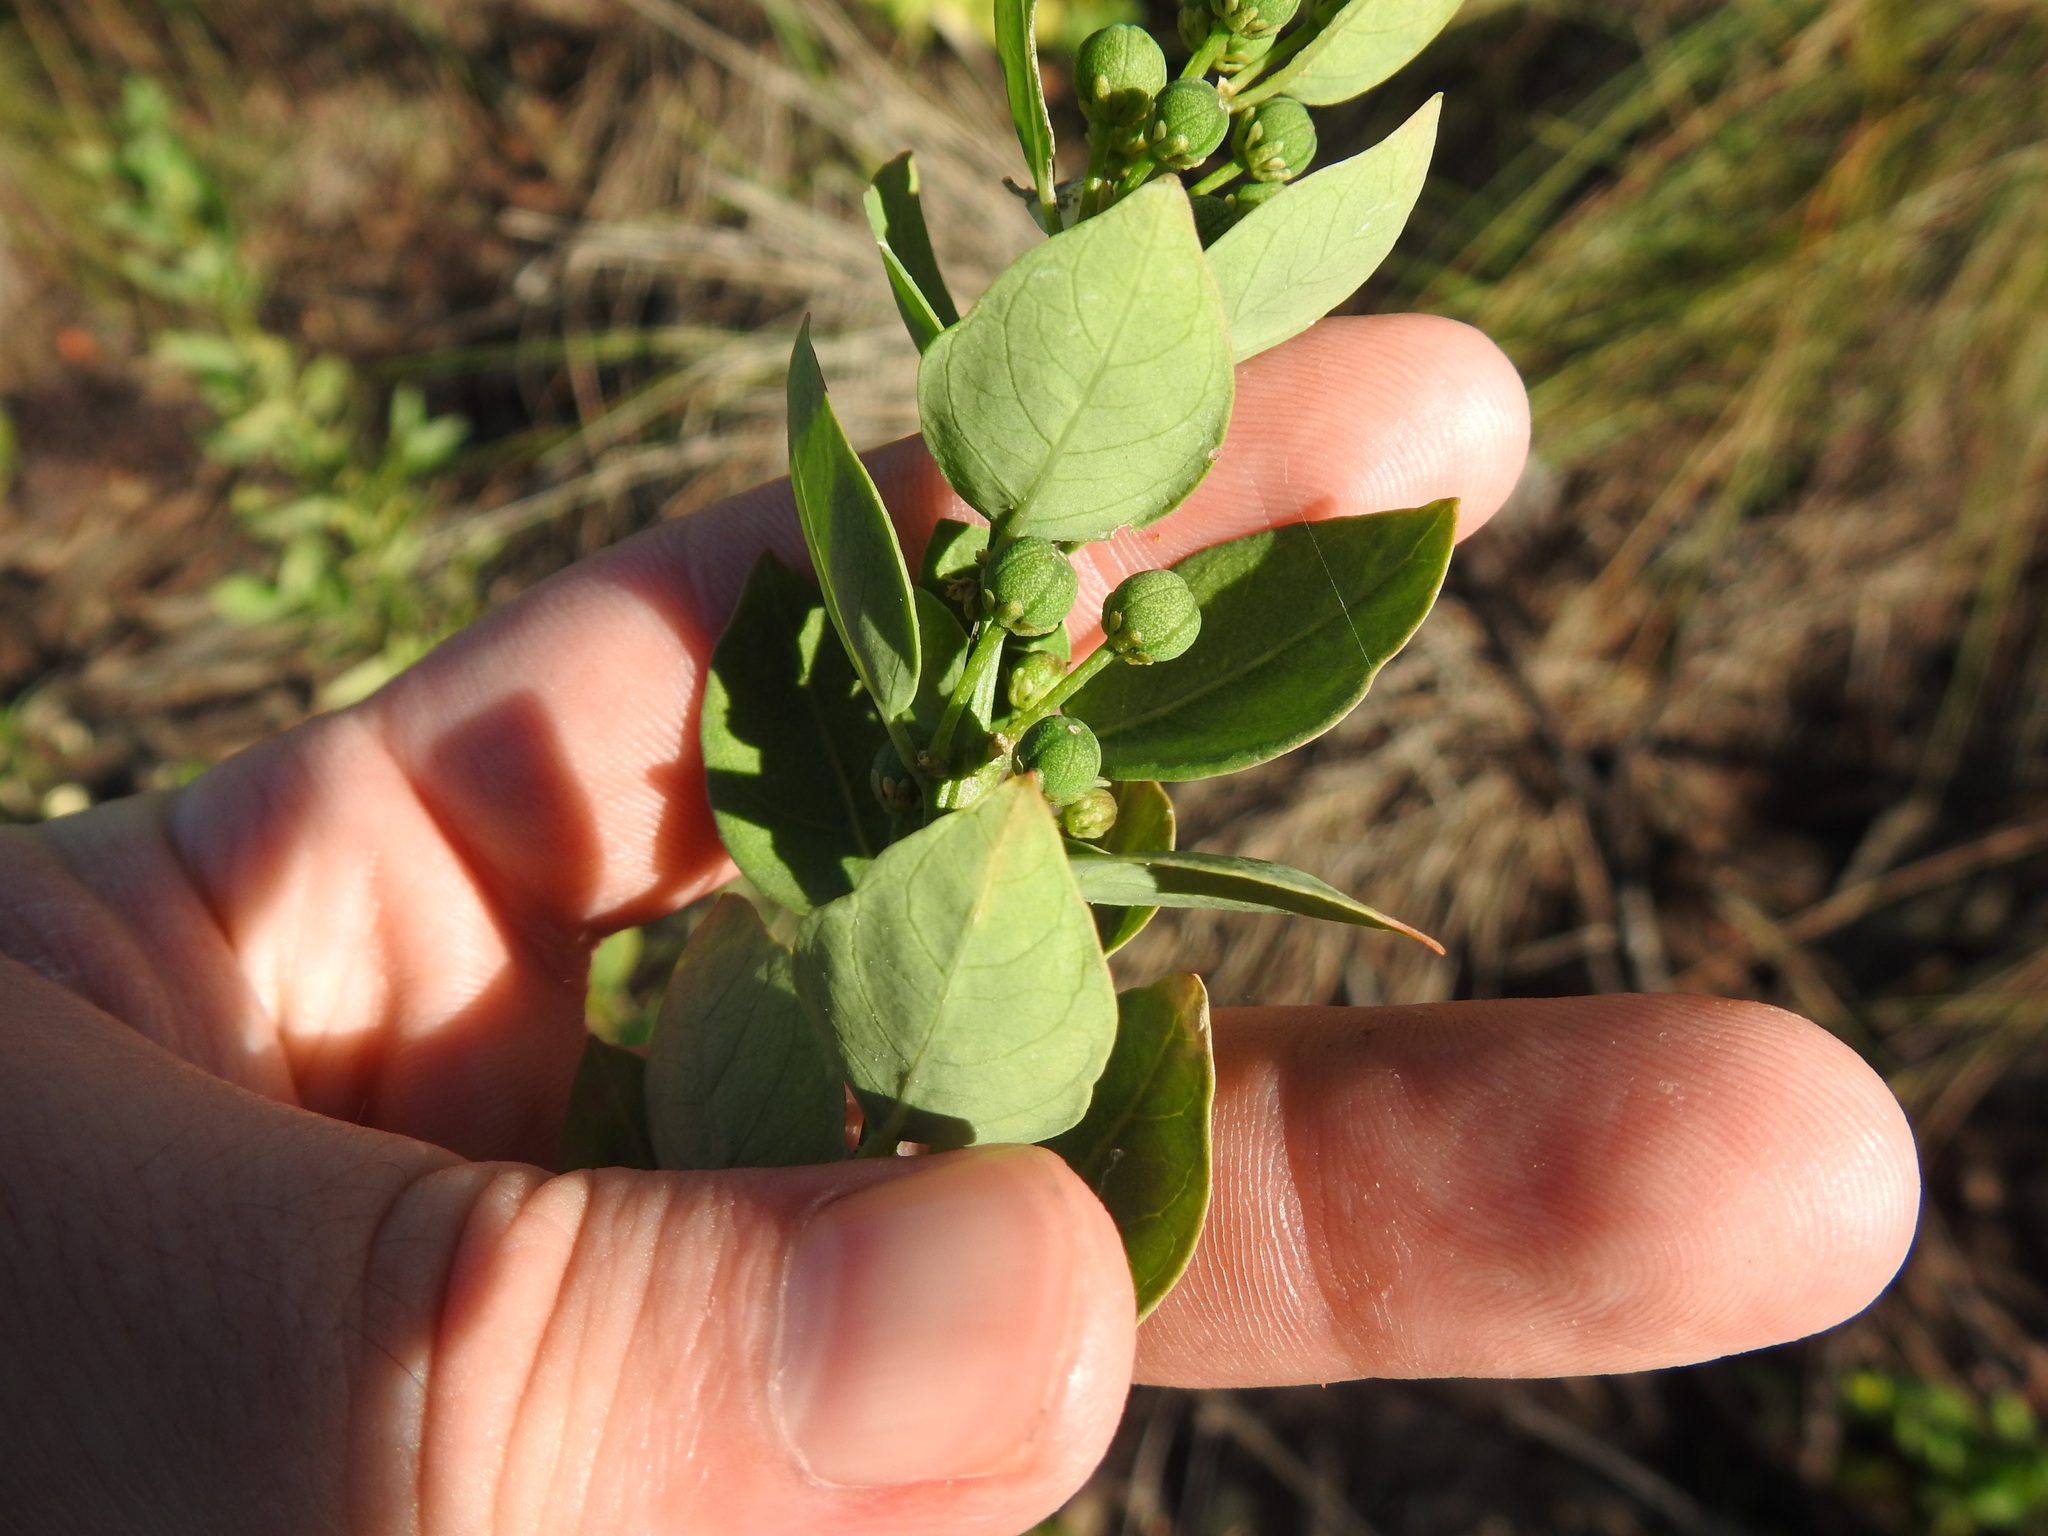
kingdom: Plantae
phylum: Tracheophyta
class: Magnoliopsida
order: Malpighiales
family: Peraceae
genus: Clutia
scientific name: Clutia pulchella
